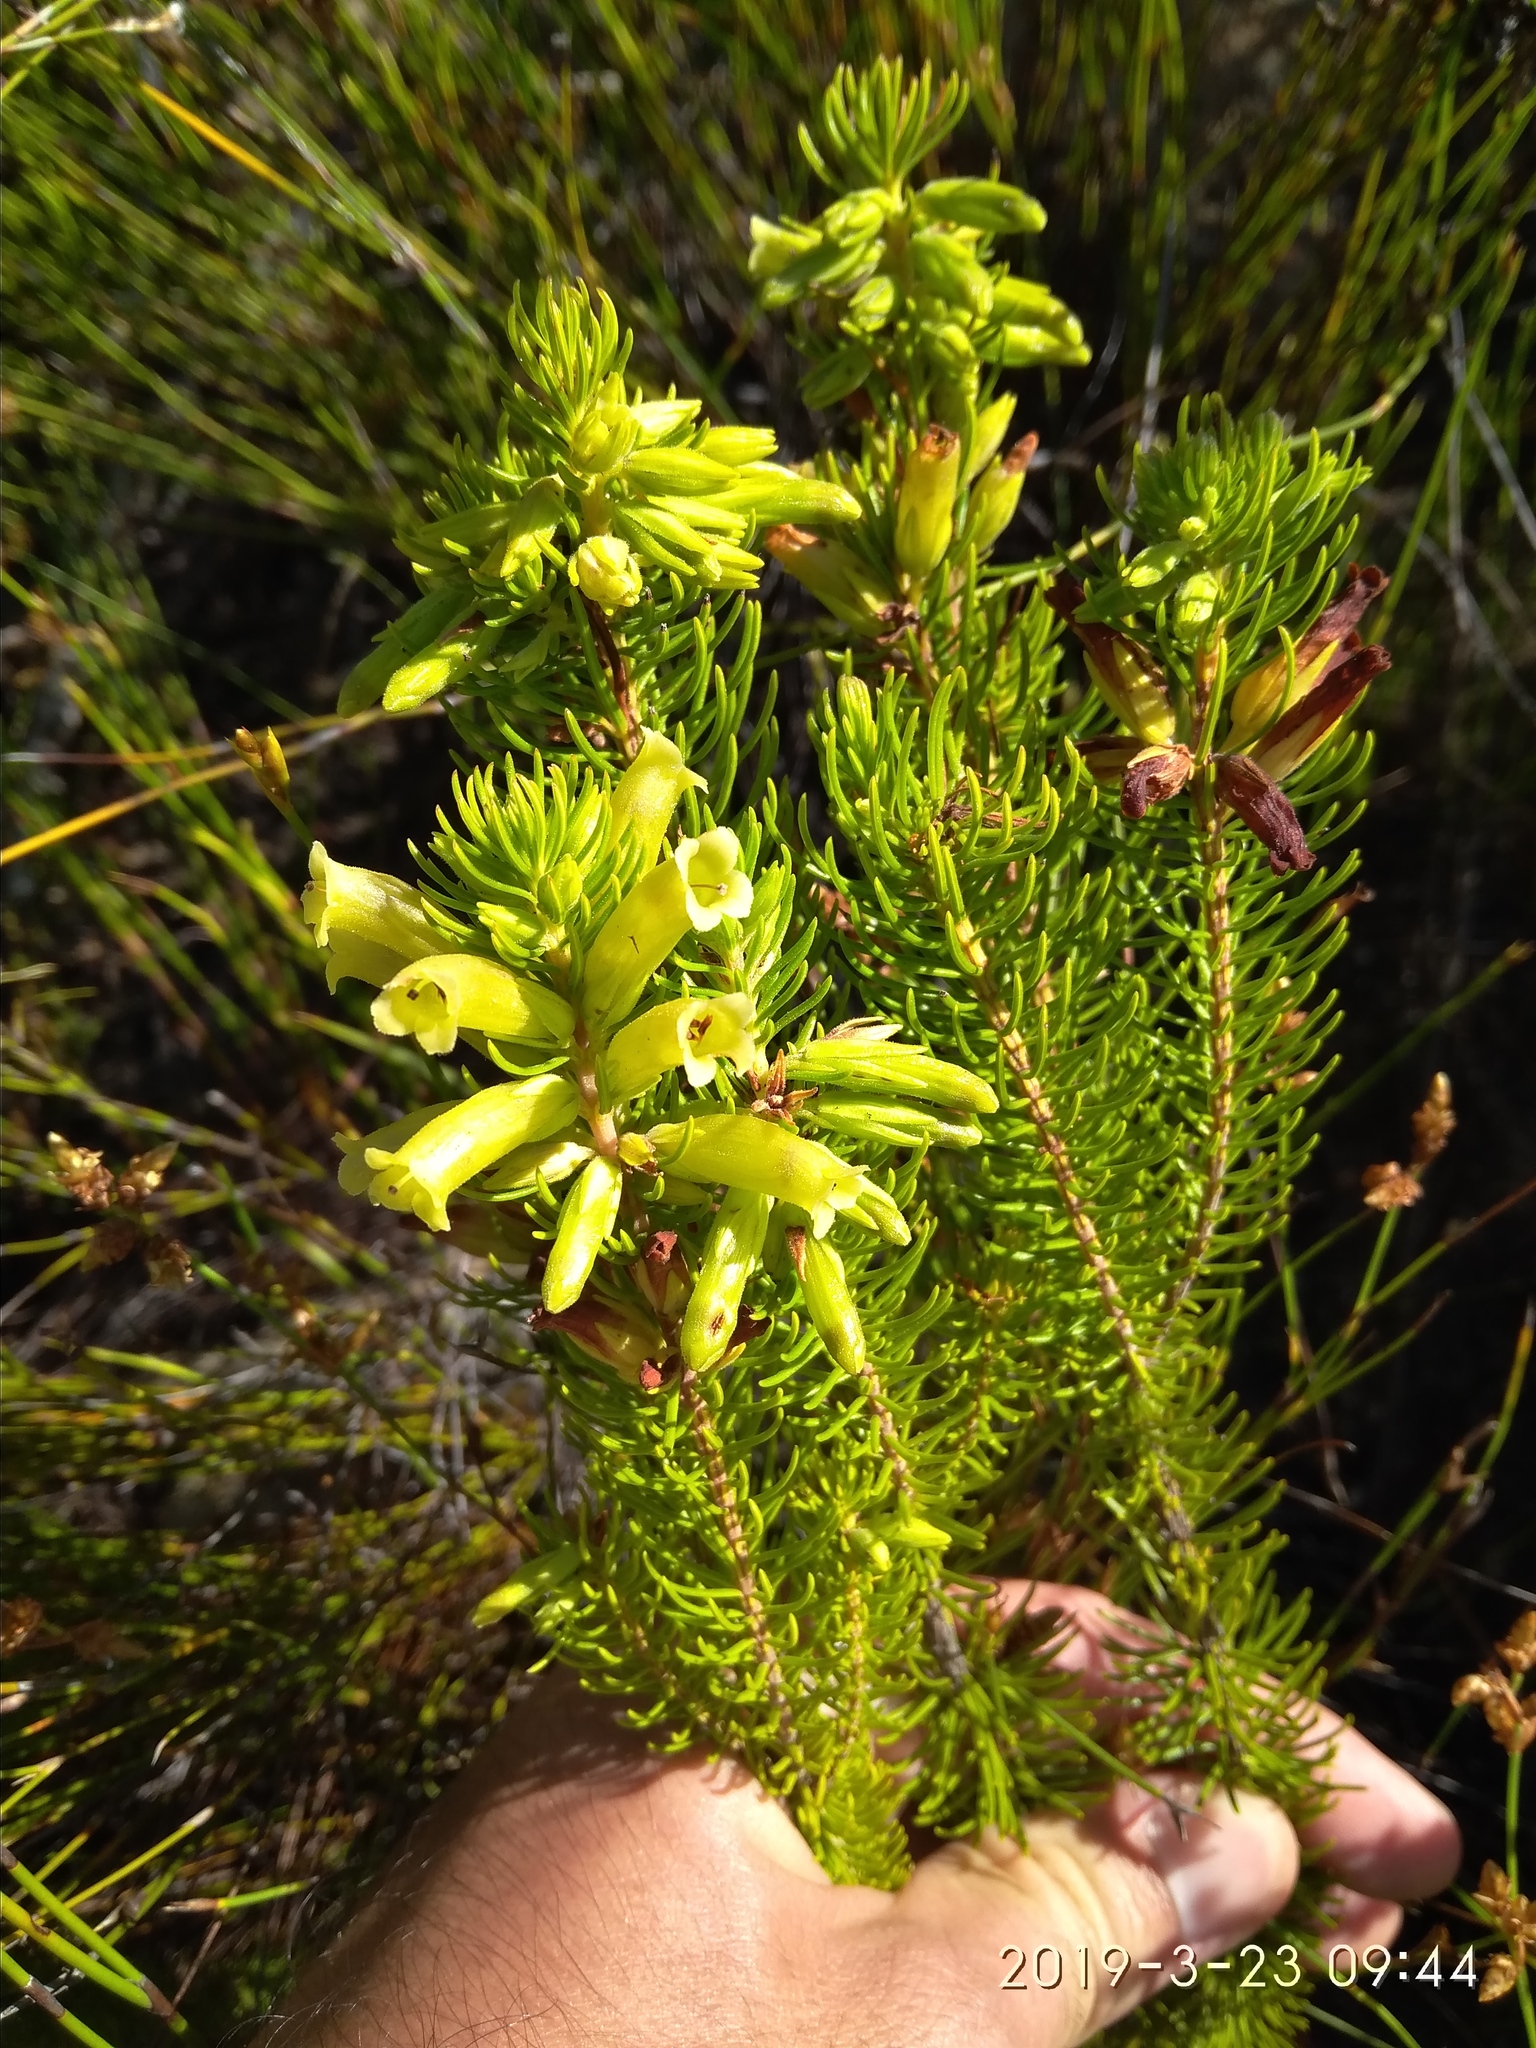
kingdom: Plantae
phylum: Tracheophyta
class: Magnoliopsida
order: Ericales
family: Ericaceae
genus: Erica
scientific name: Erica viscaria
